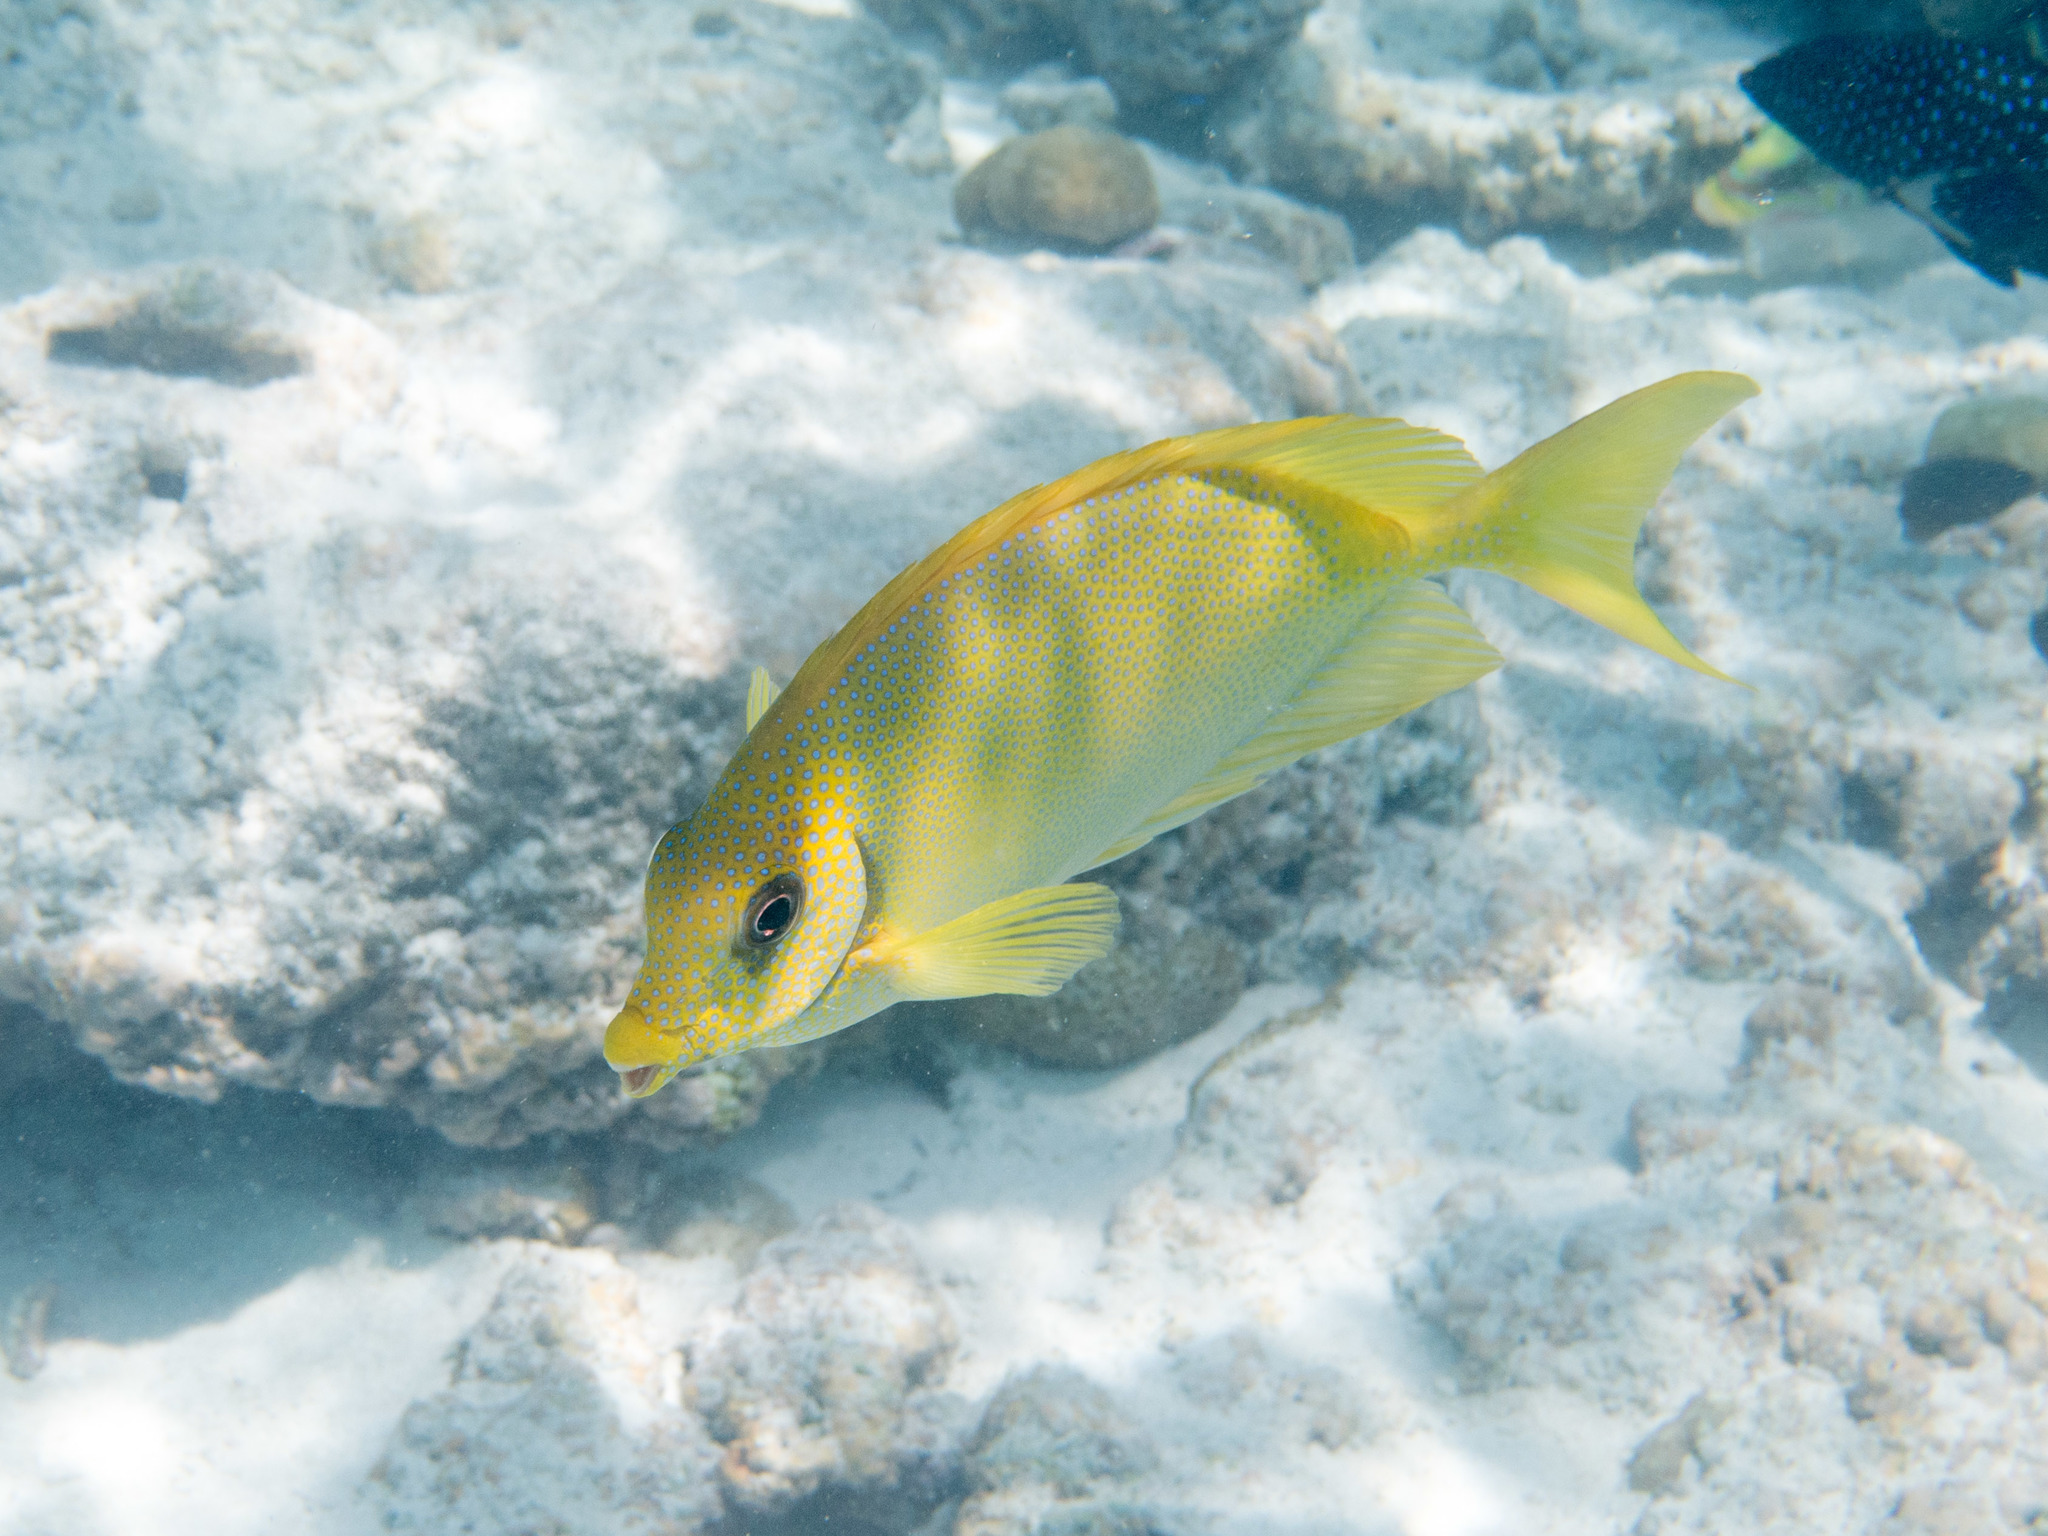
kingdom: Animalia
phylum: Chordata
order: Perciformes
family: Siganidae
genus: Siganus
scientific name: Siganus corallinus
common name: Coral rabbitfish
